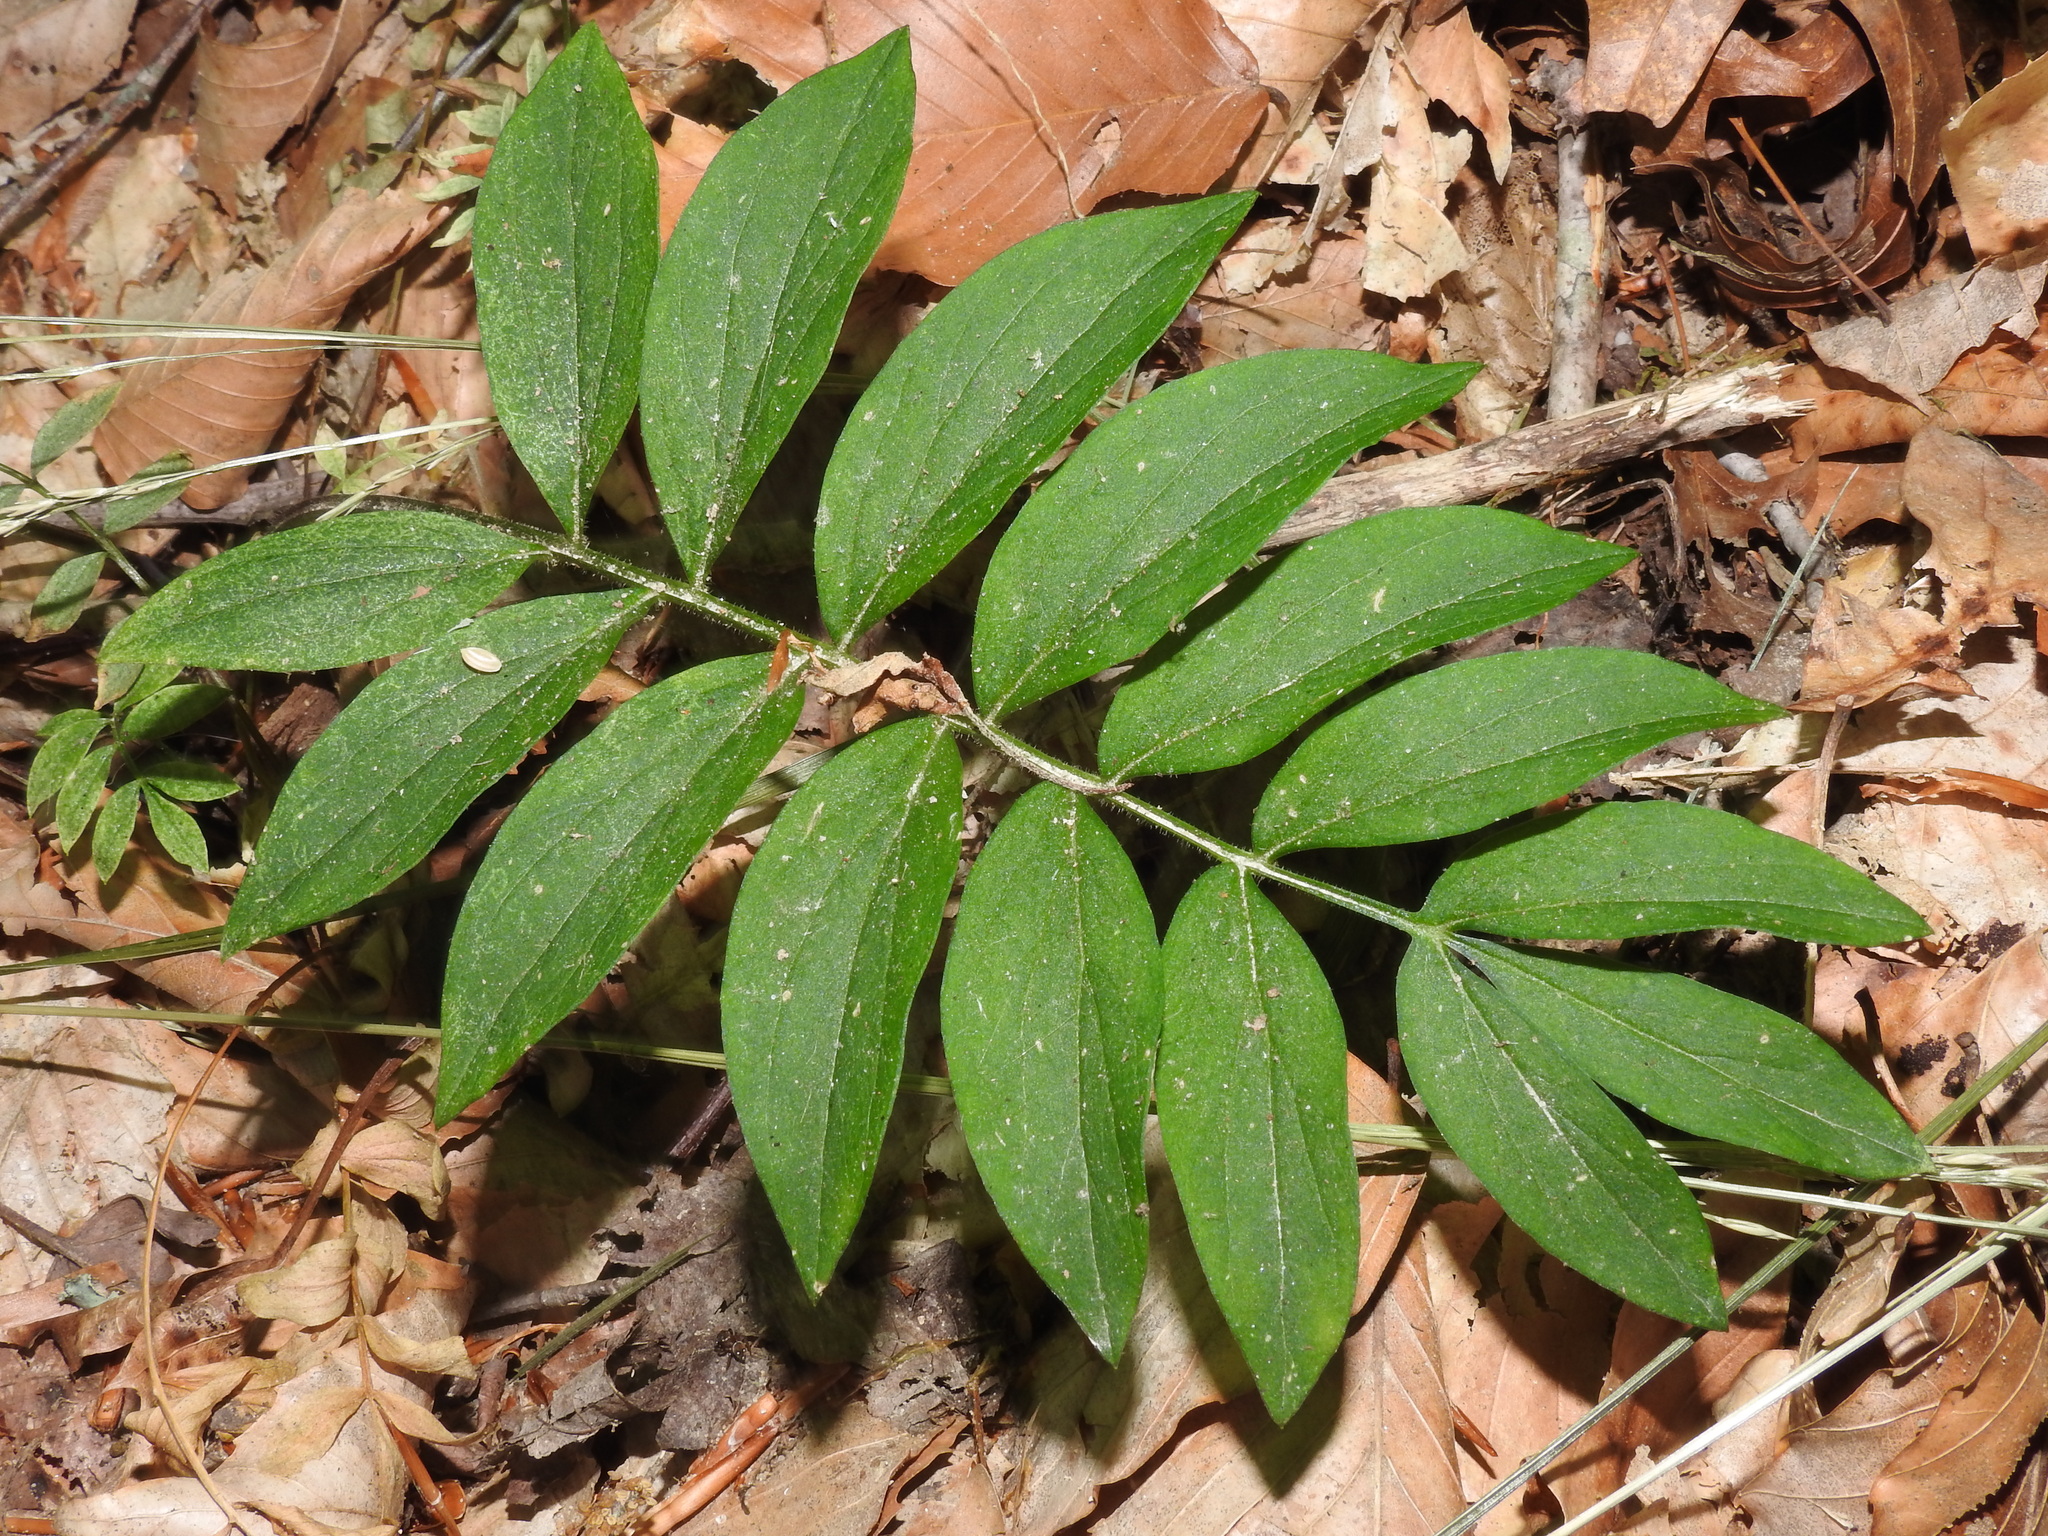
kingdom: Plantae
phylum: Tracheophyta
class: Magnoliopsida
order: Ericales
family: Polemoniaceae
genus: Polemonium
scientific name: Polemonium reptans
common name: Creeping jacob's-ladder
